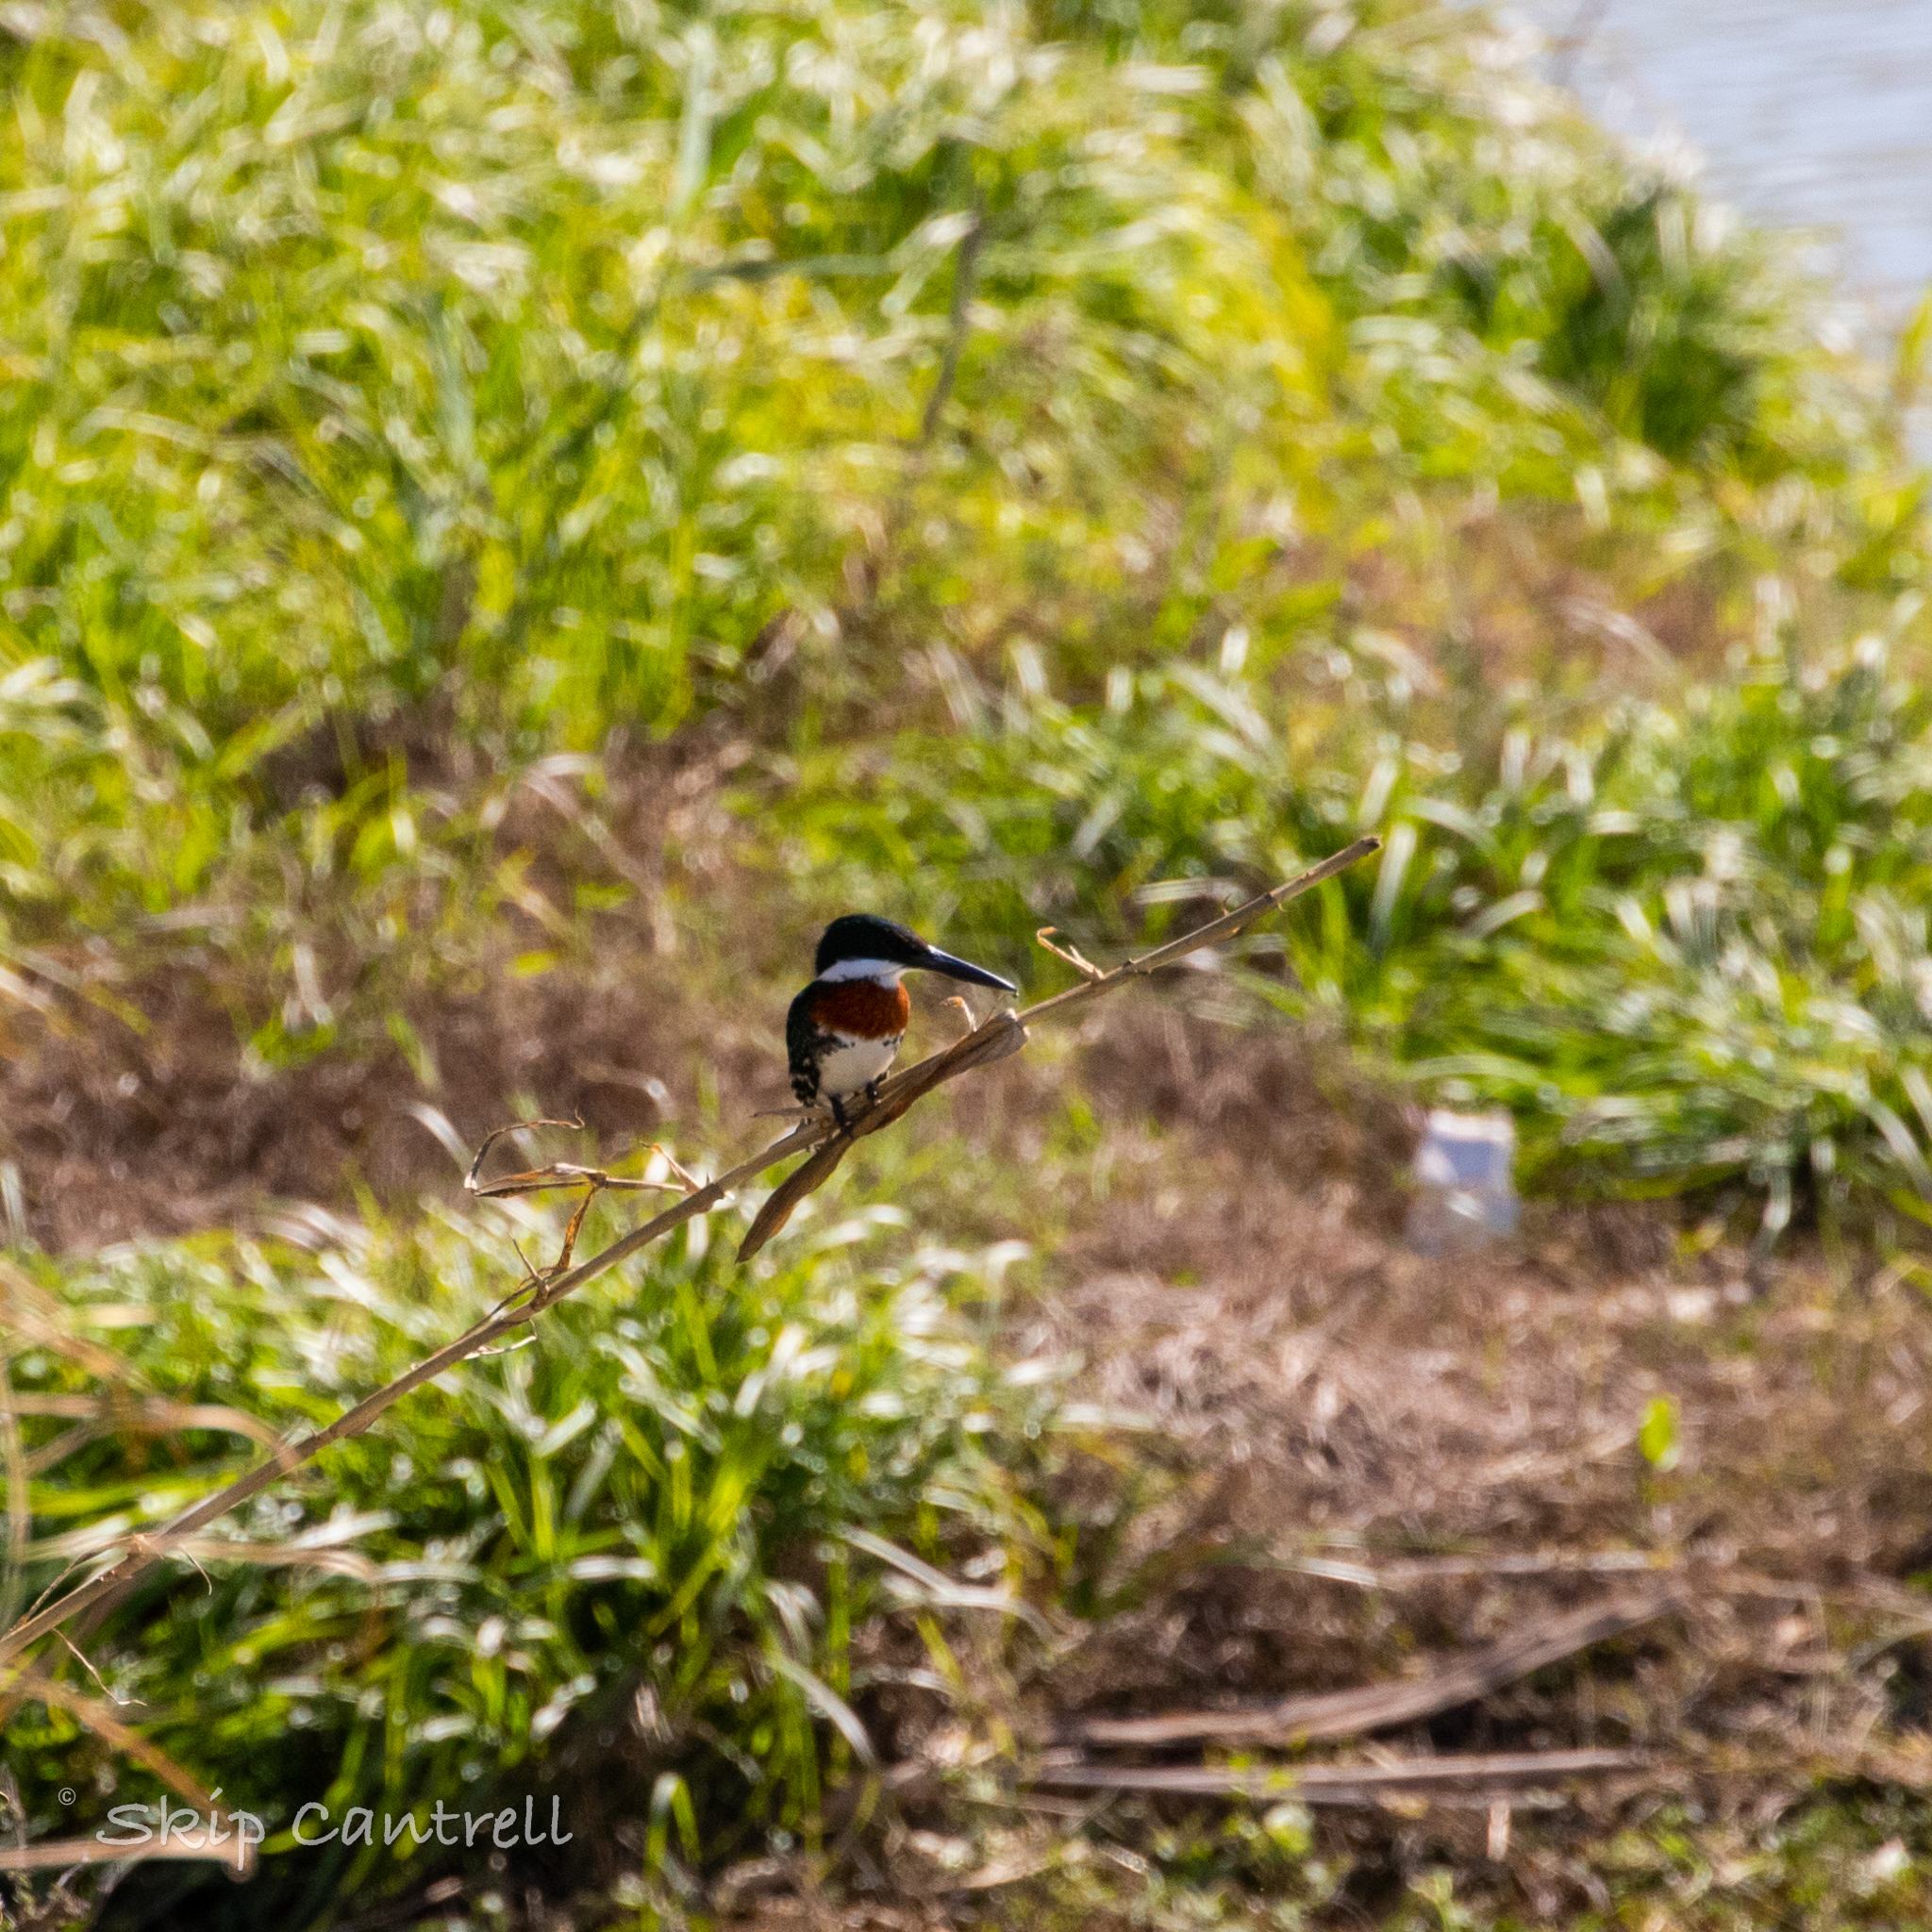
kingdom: Animalia
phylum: Chordata
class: Aves
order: Coraciiformes
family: Alcedinidae
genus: Chloroceryle
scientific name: Chloroceryle americana
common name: Green kingfisher
